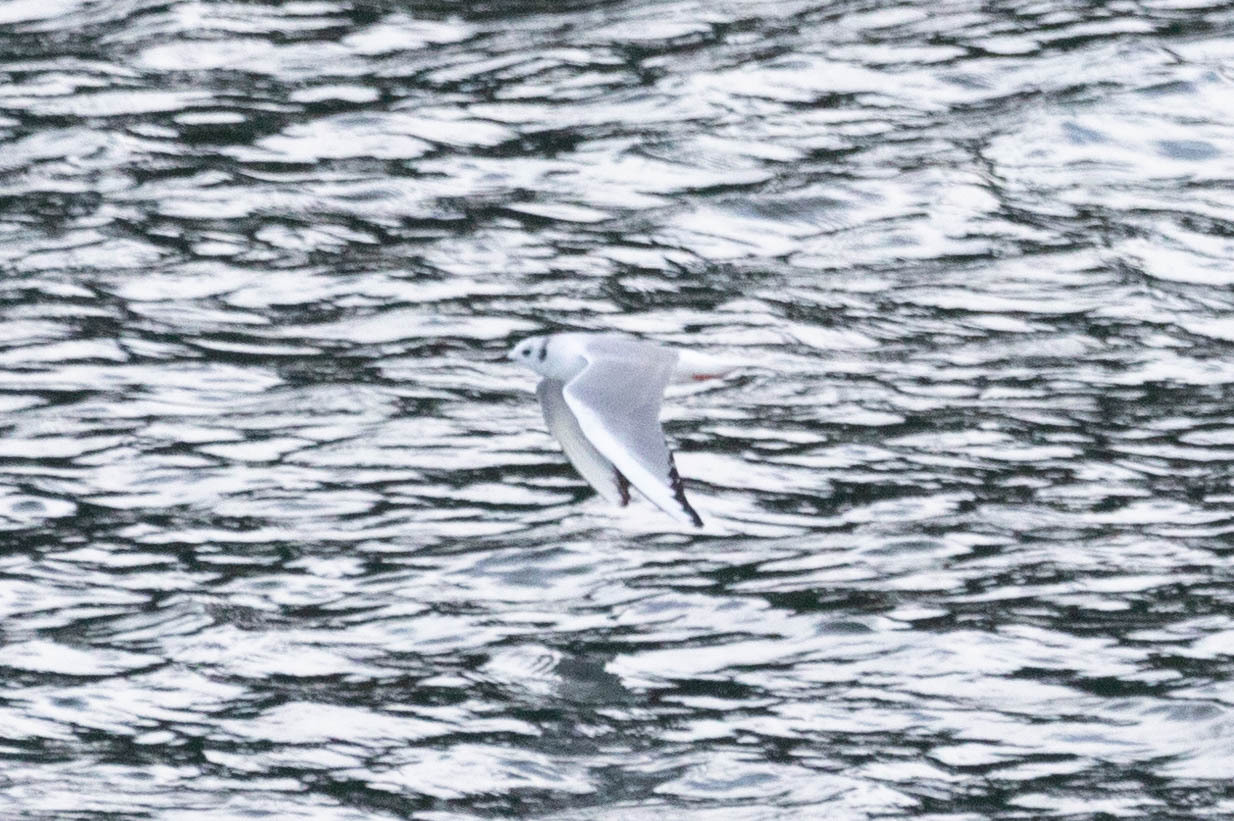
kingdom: Animalia
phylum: Chordata
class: Aves
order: Charadriiformes
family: Laridae
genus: Chroicocephalus
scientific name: Chroicocephalus philadelphia
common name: Bonaparte's gull
